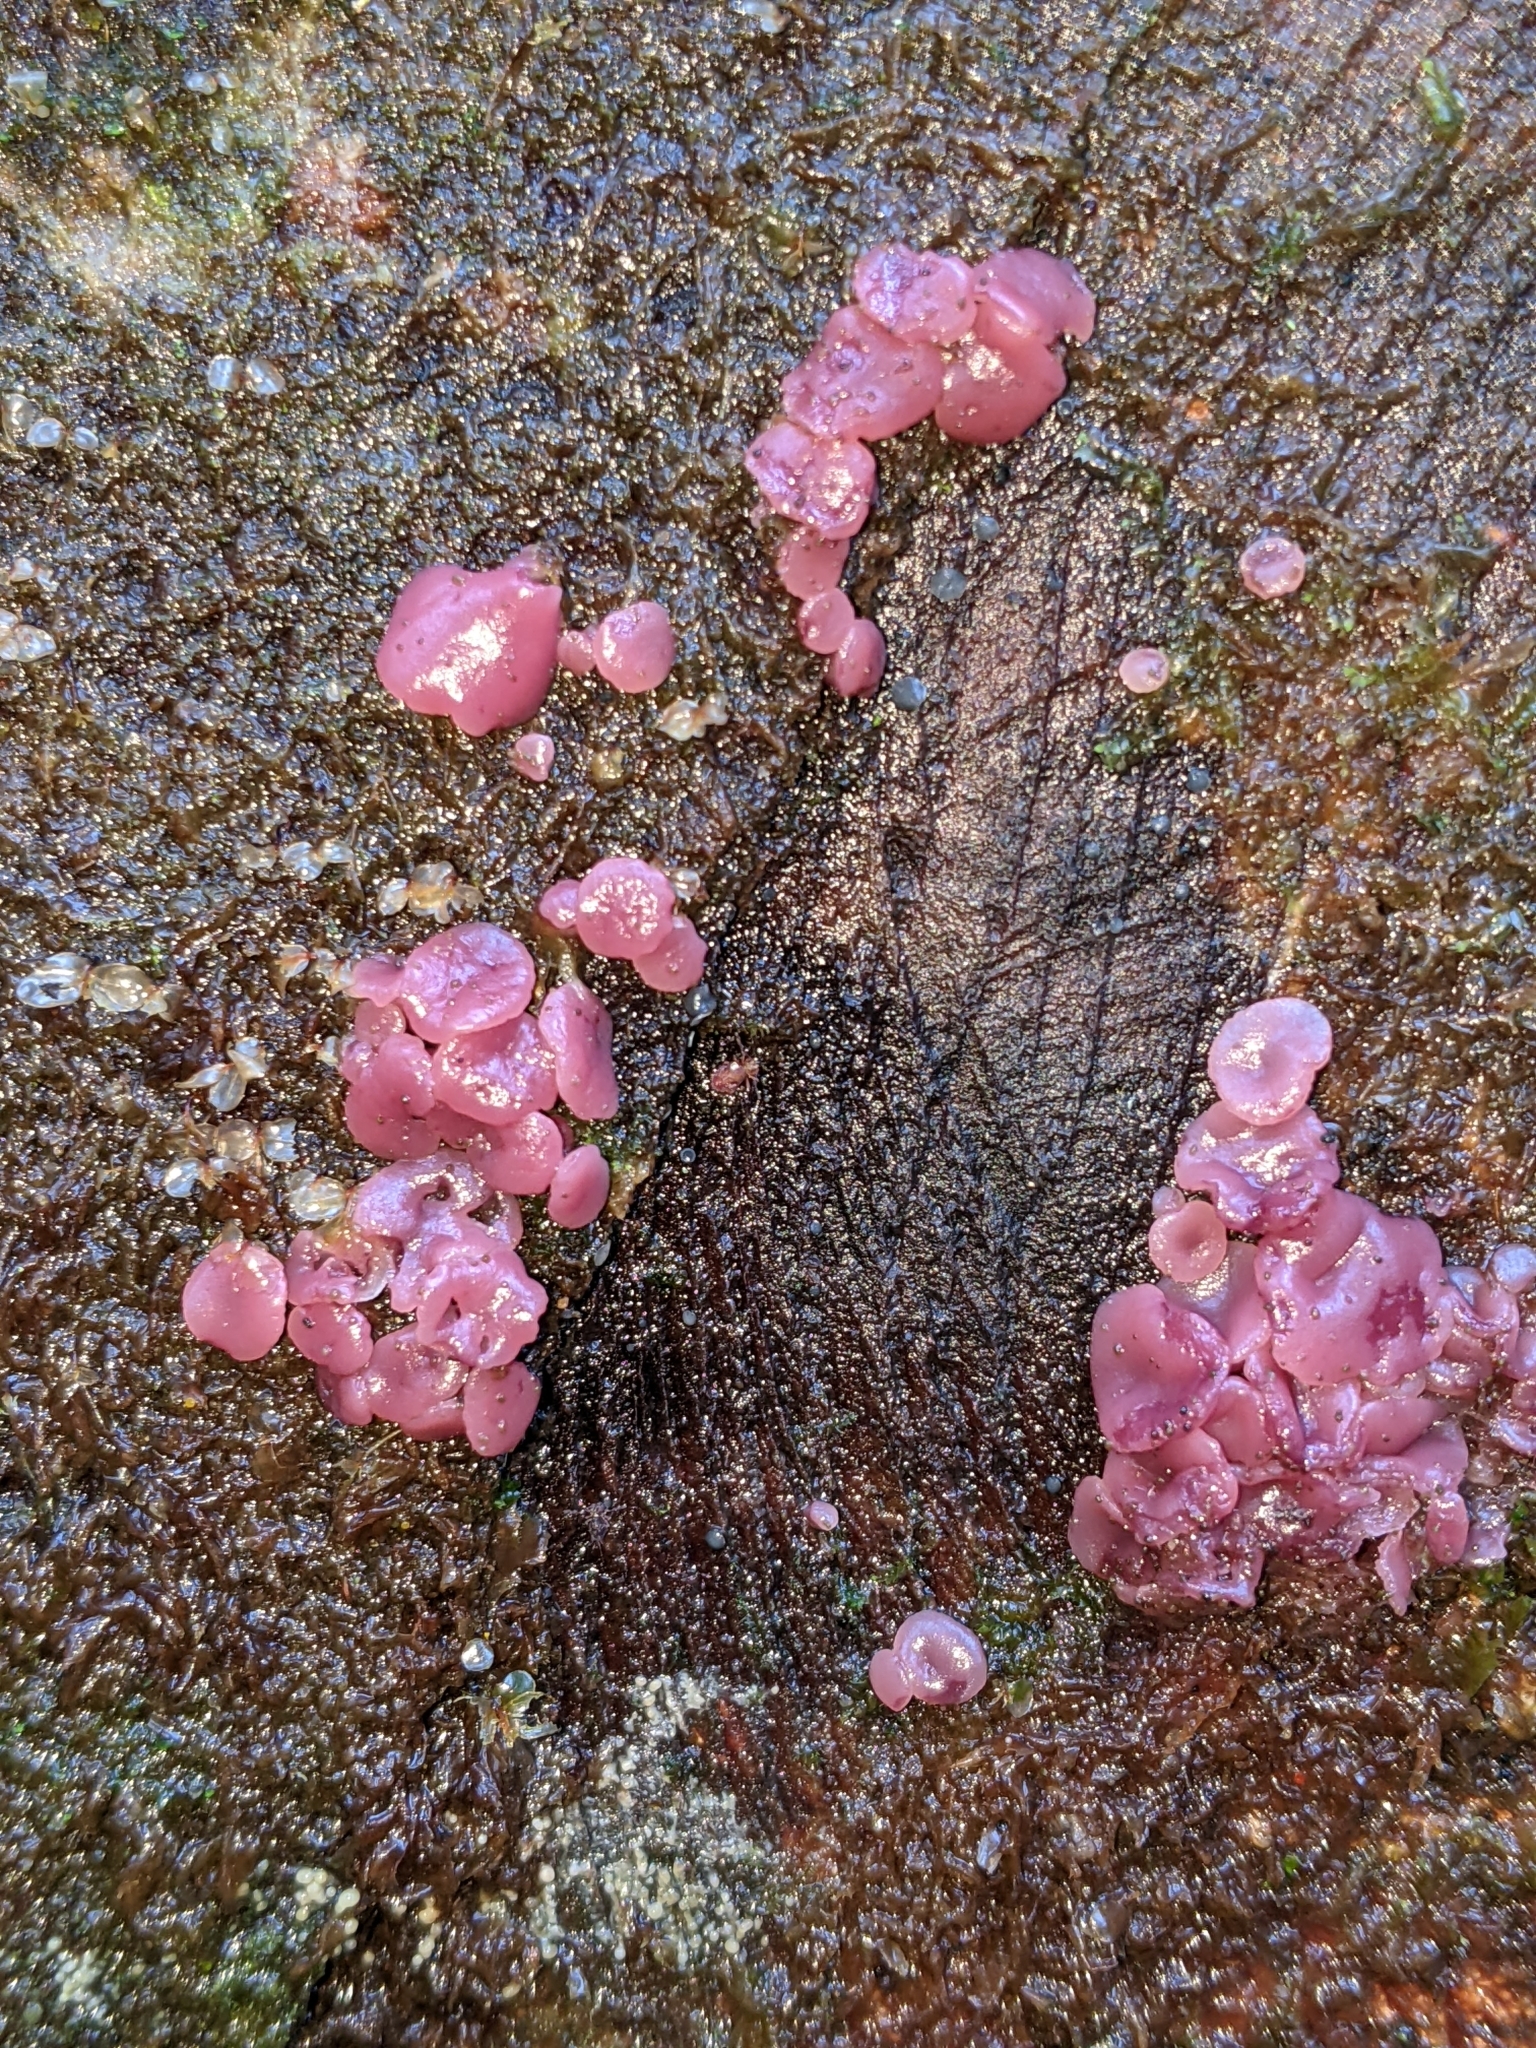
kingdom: Fungi
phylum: Ascomycota
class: Leotiomycetes
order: Helotiales
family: Gelatinodiscaceae
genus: Ascocoryne
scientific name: Ascocoryne sarcoides
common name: Purple jellydisc
